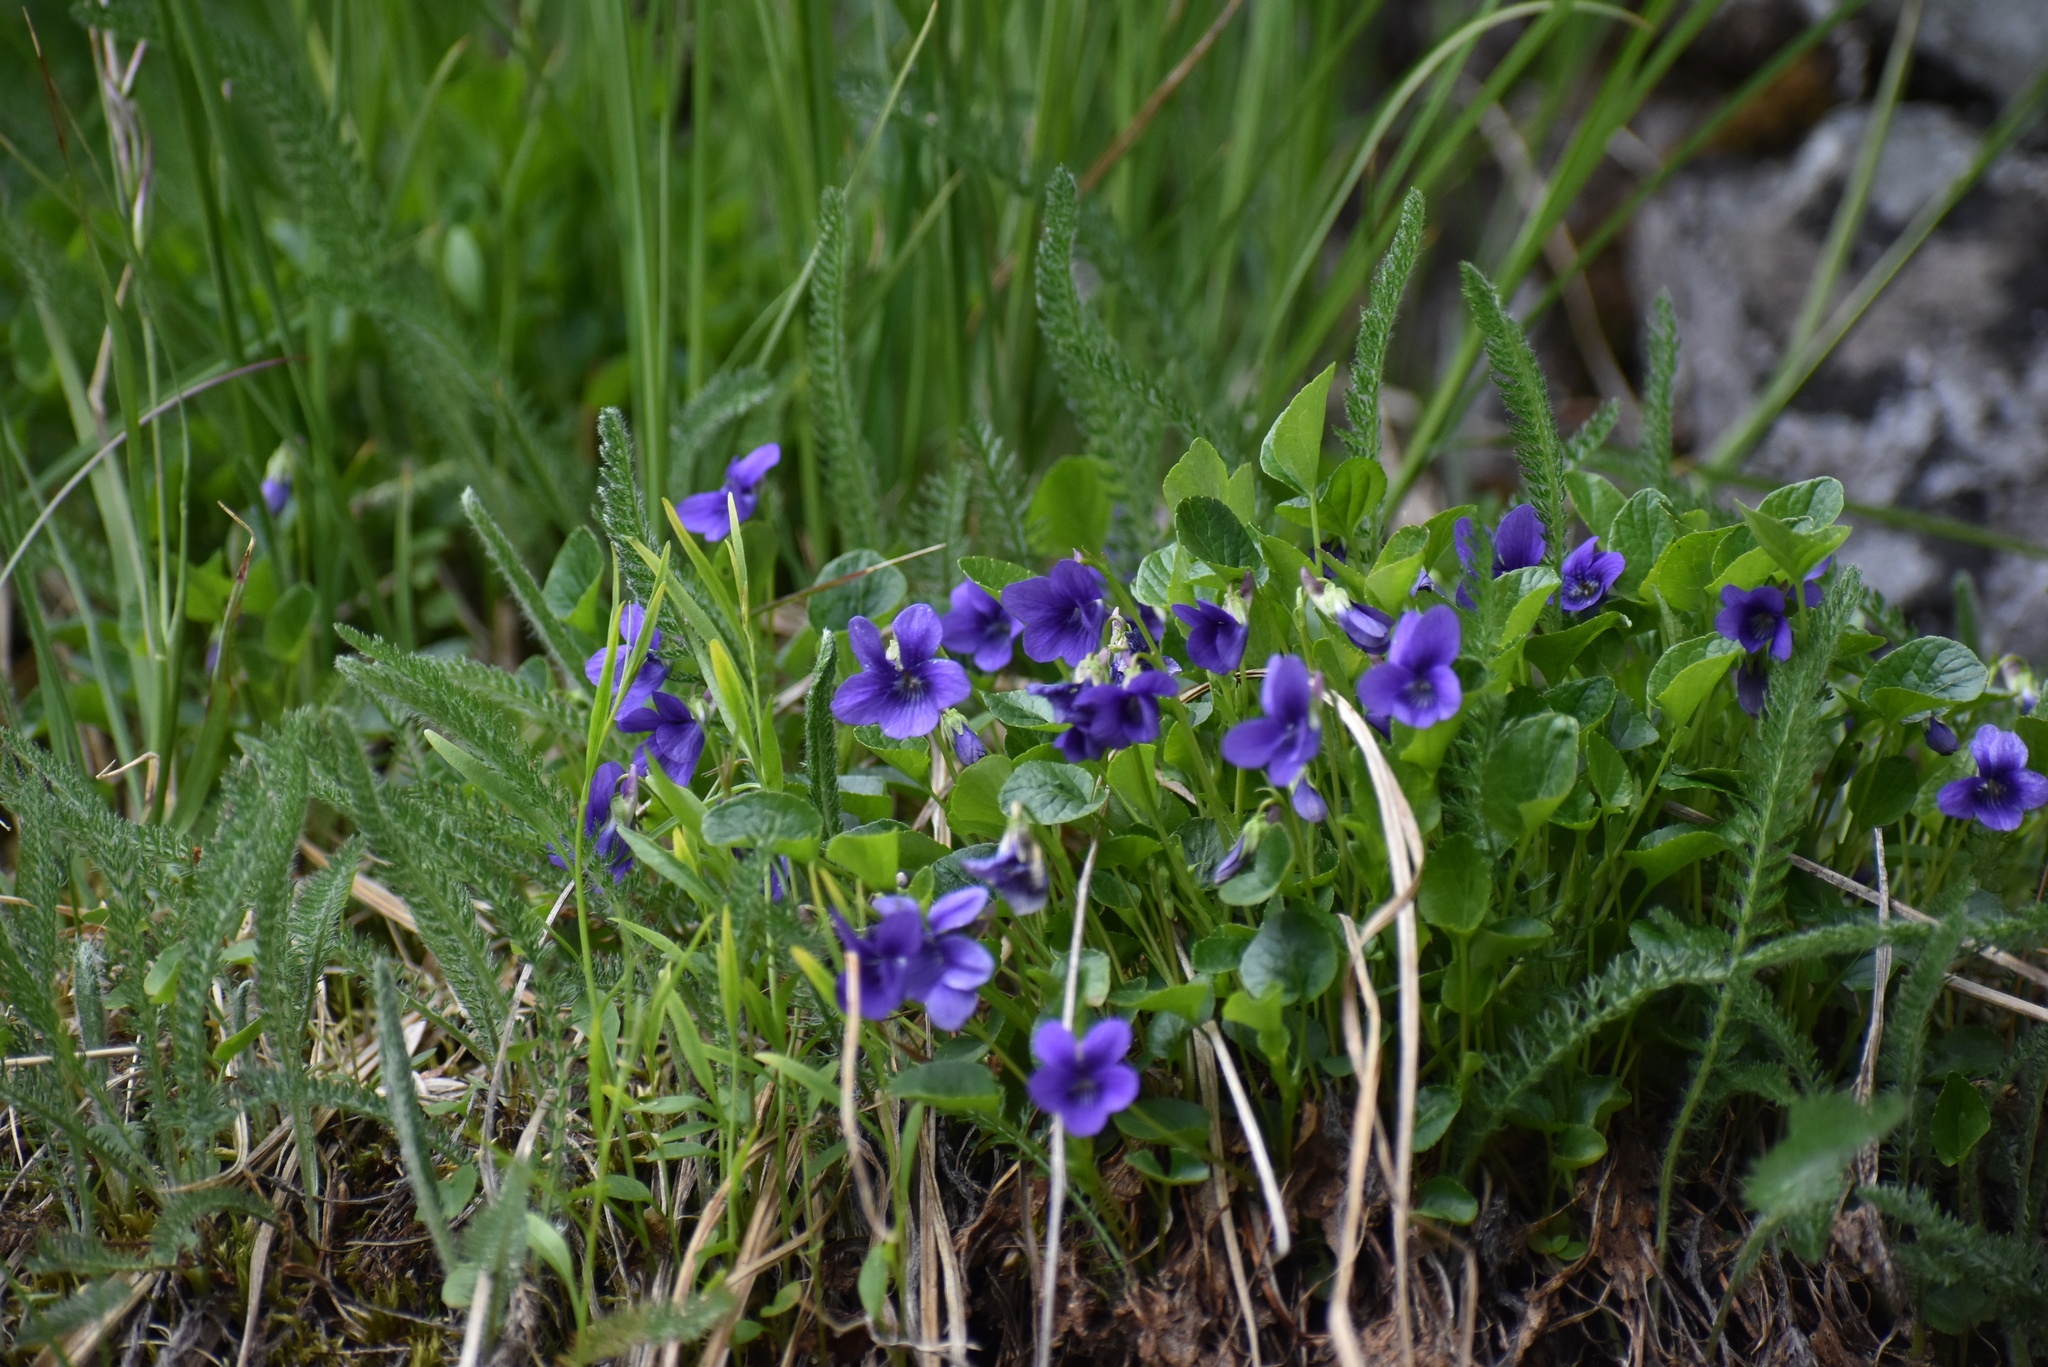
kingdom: Plantae
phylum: Tracheophyta
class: Magnoliopsida
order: Malpighiales
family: Violaceae
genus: Viola
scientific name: Viola adunca
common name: Sand violet
